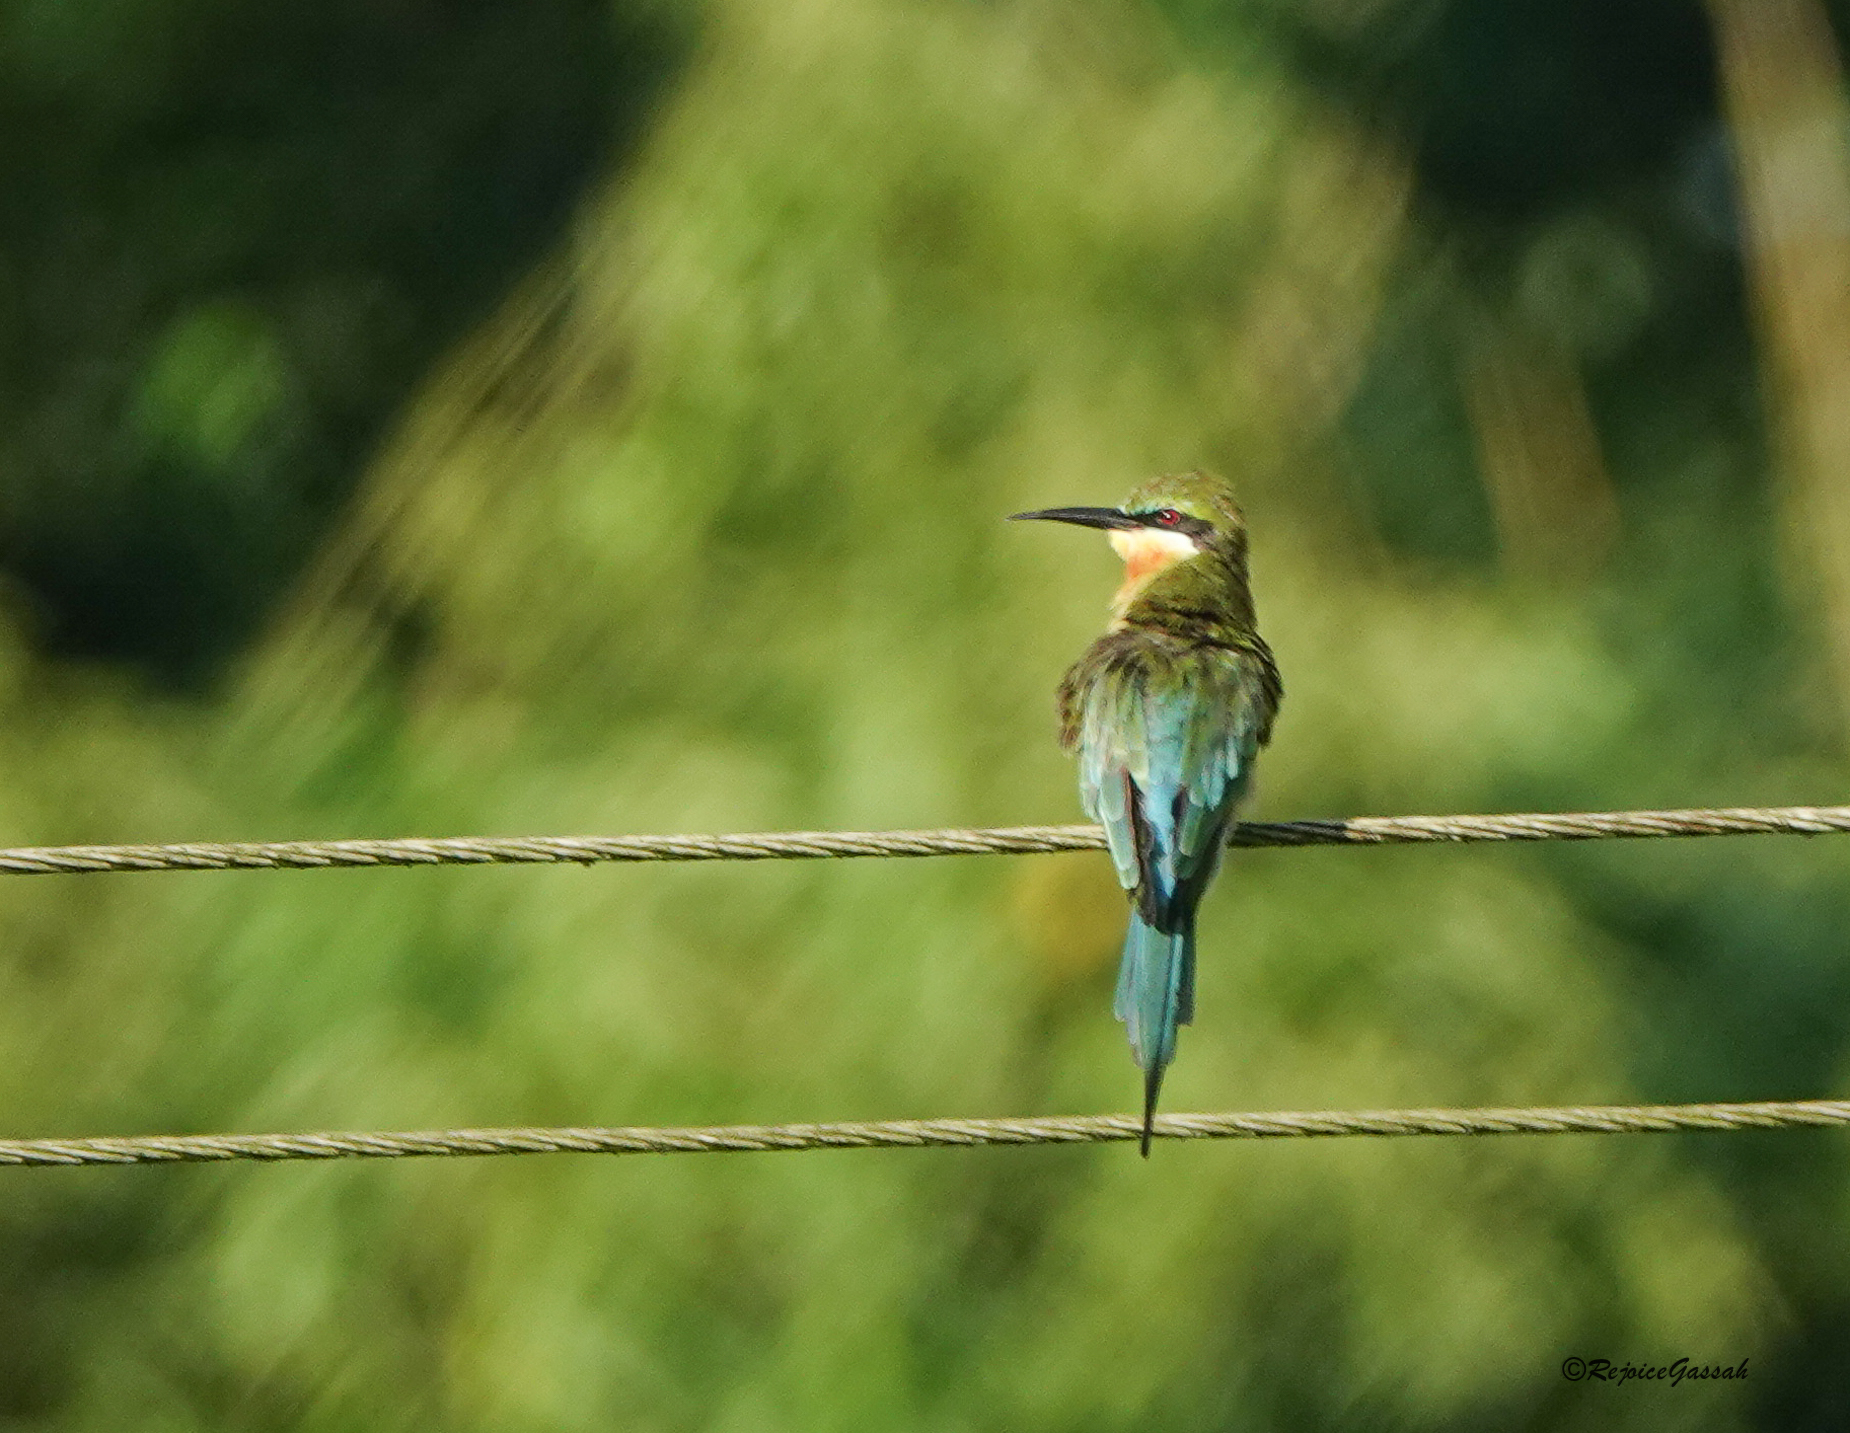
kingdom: Animalia
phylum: Chordata
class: Aves
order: Coraciiformes
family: Meropidae
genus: Merops
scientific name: Merops philippinus
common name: Blue-tailed bee-eater
